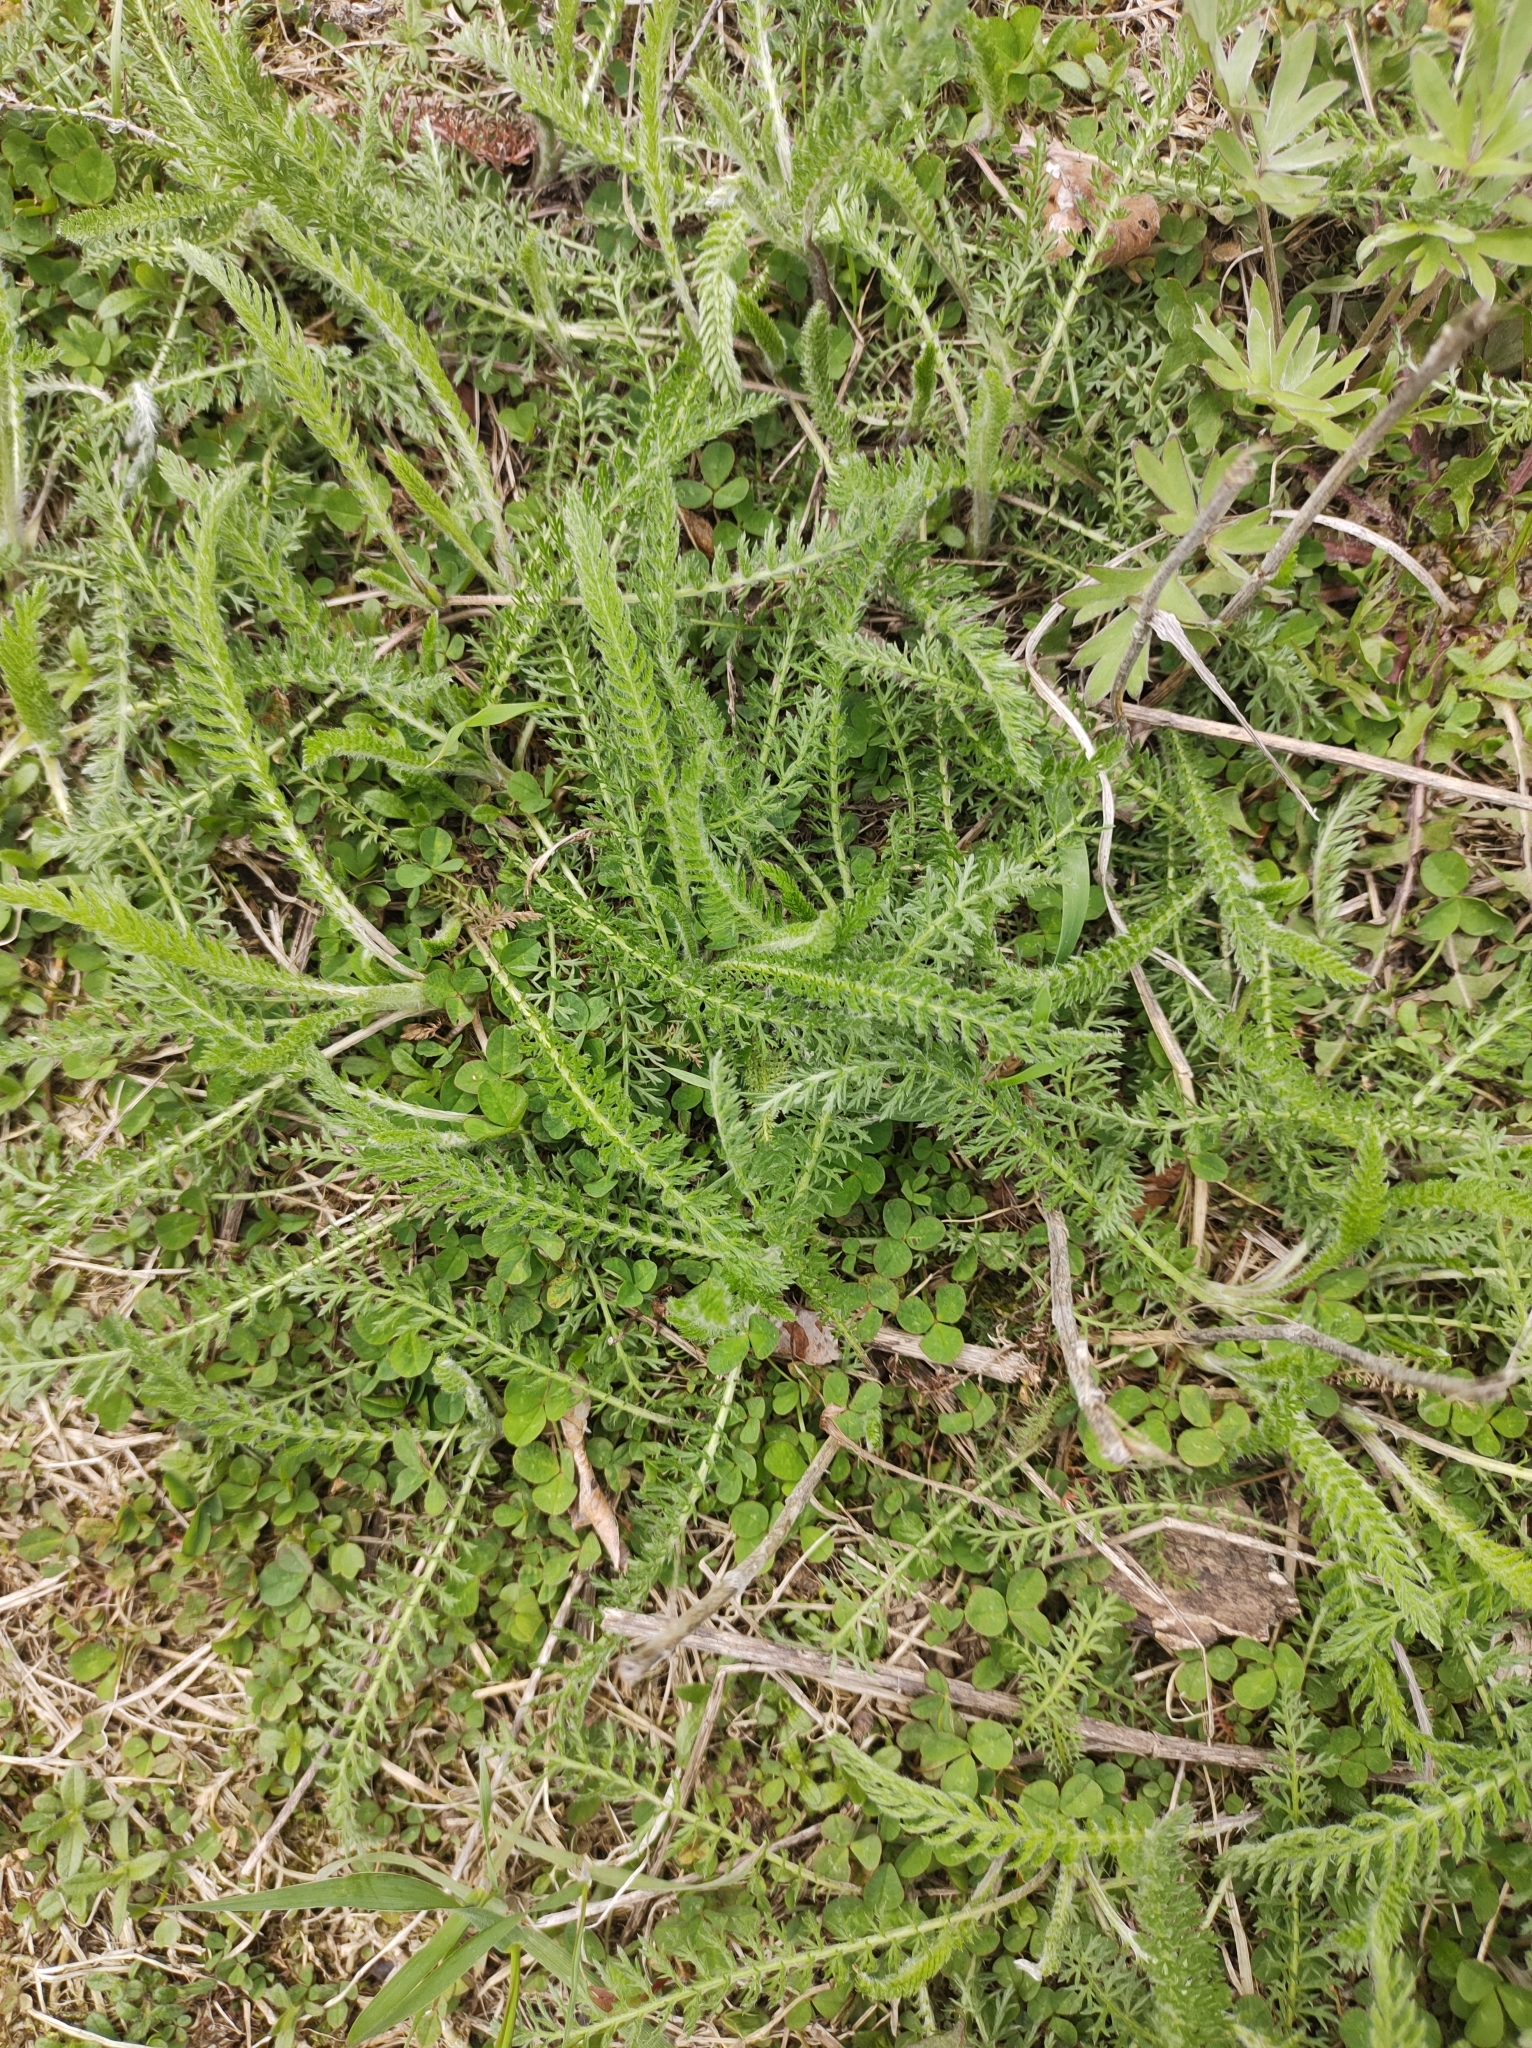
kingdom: Plantae
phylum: Tracheophyta
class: Magnoliopsida
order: Asterales
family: Asteraceae
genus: Achillea
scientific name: Achillea millefolium
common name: Yarrow
